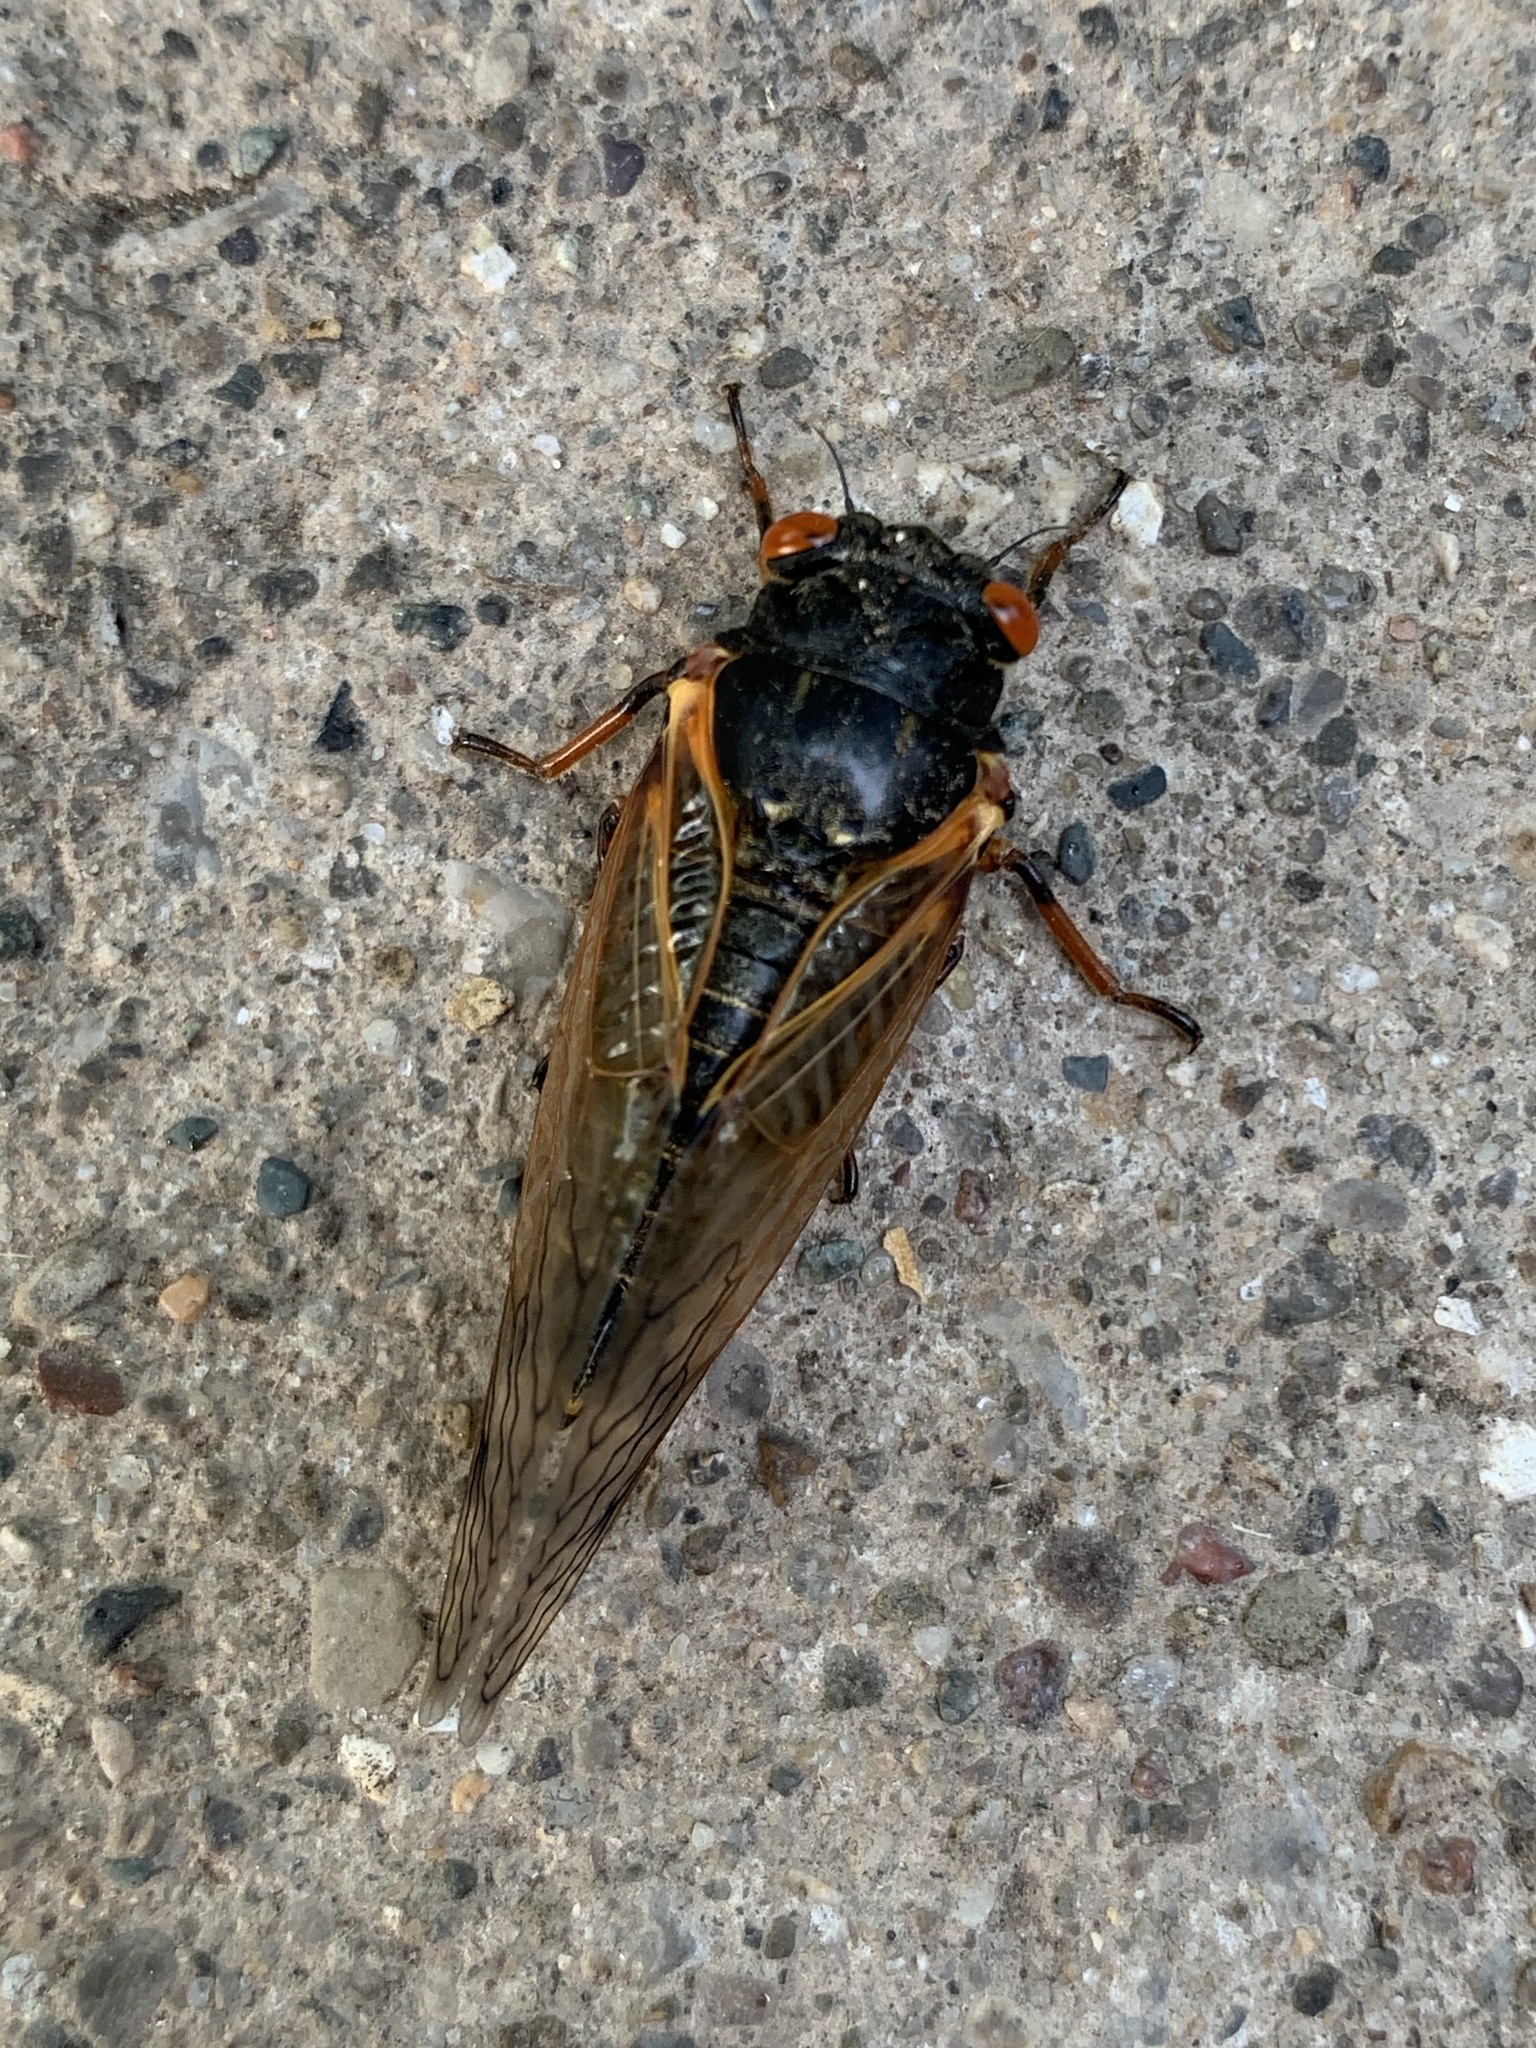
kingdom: Animalia
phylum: Arthropoda
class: Insecta
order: Hemiptera
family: Cicadidae
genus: Magicicada
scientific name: Magicicada
